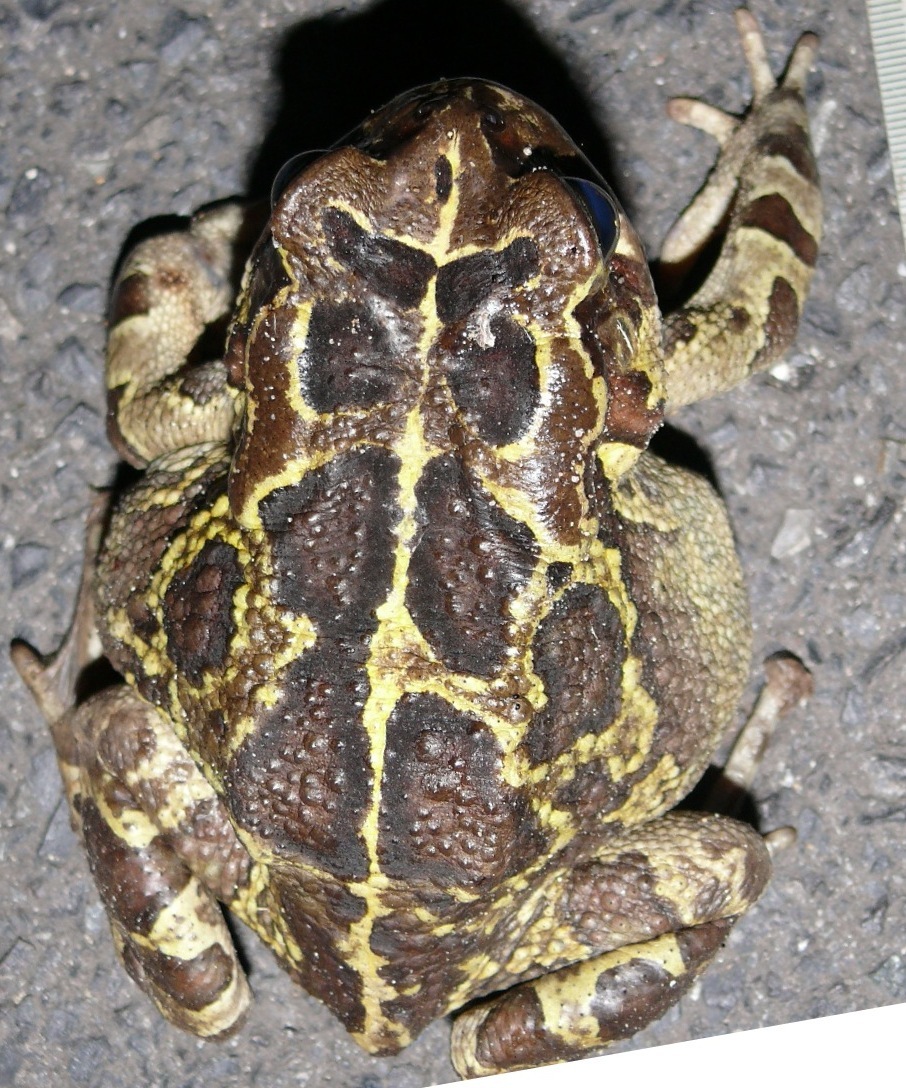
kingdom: Animalia
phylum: Chordata
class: Amphibia
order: Anura
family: Bufonidae
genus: Sclerophrys
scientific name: Sclerophrys pantherina
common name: Panther toad
